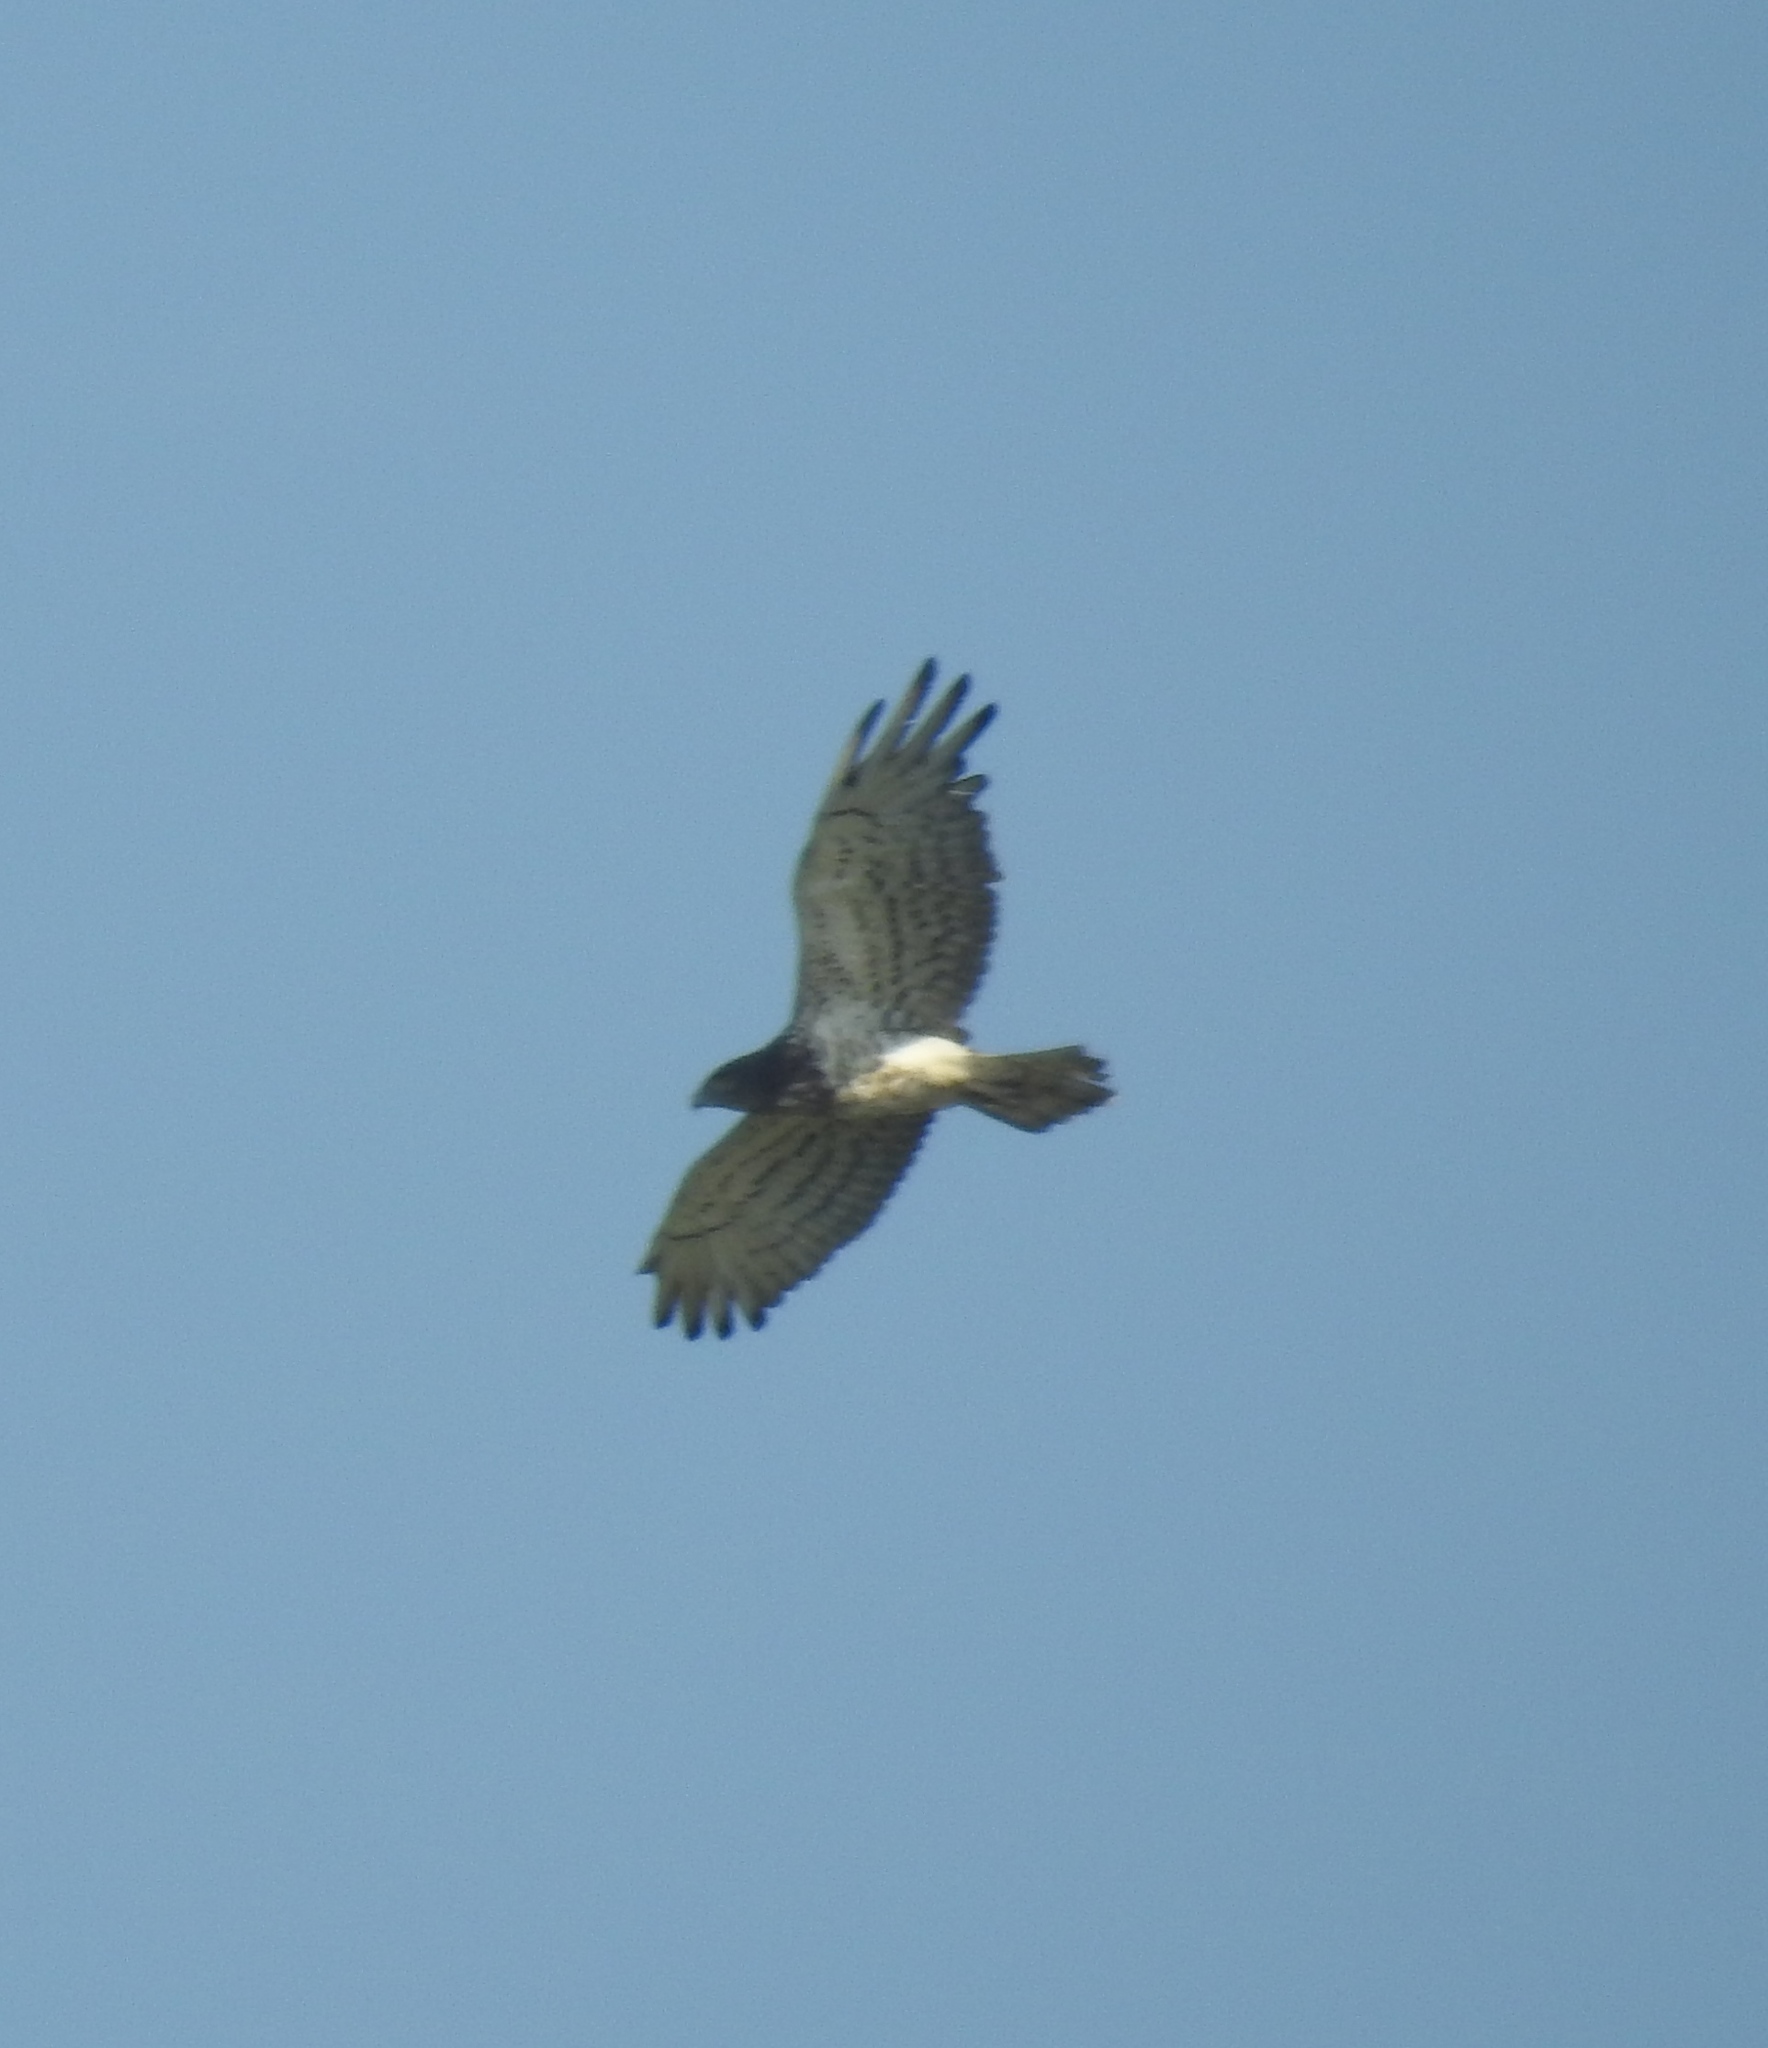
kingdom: Animalia
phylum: Chordata
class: Aves
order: Accipitriformes
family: Accipitridae
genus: Circaetus
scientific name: Circaetus gallicus
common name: Short-toed snake eagle
